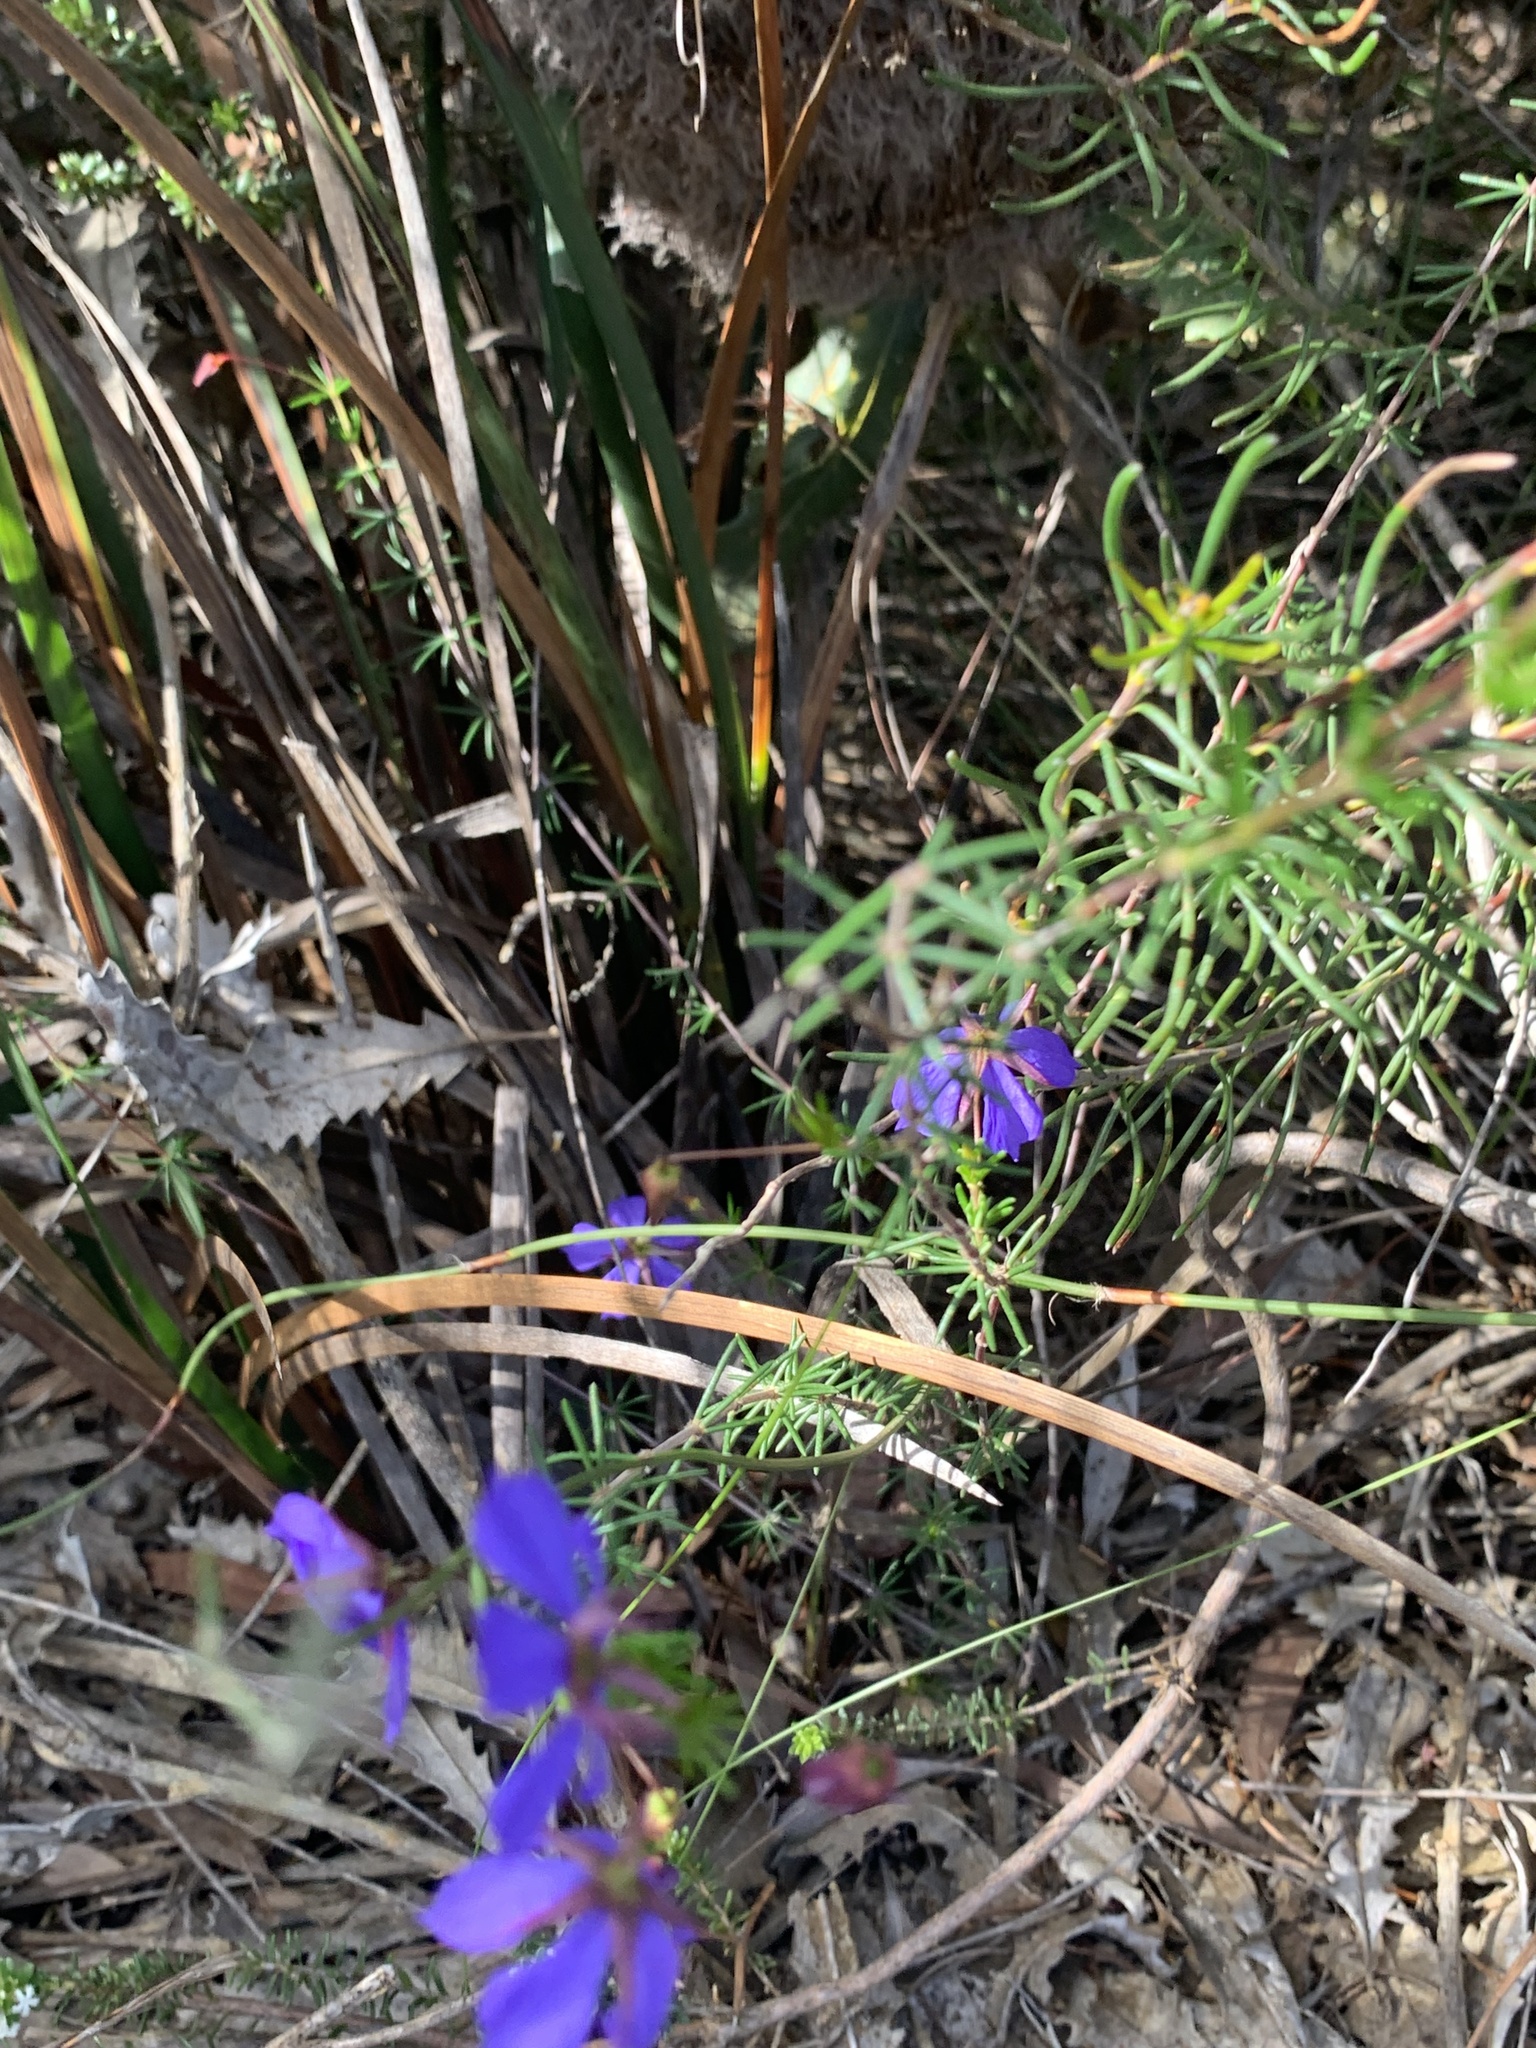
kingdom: Plantae
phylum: Tracheophyta
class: Magnoliopsida
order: Oxalidales
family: Elaeocarpaceae
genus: Platytheca
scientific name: Platytheca galioides
